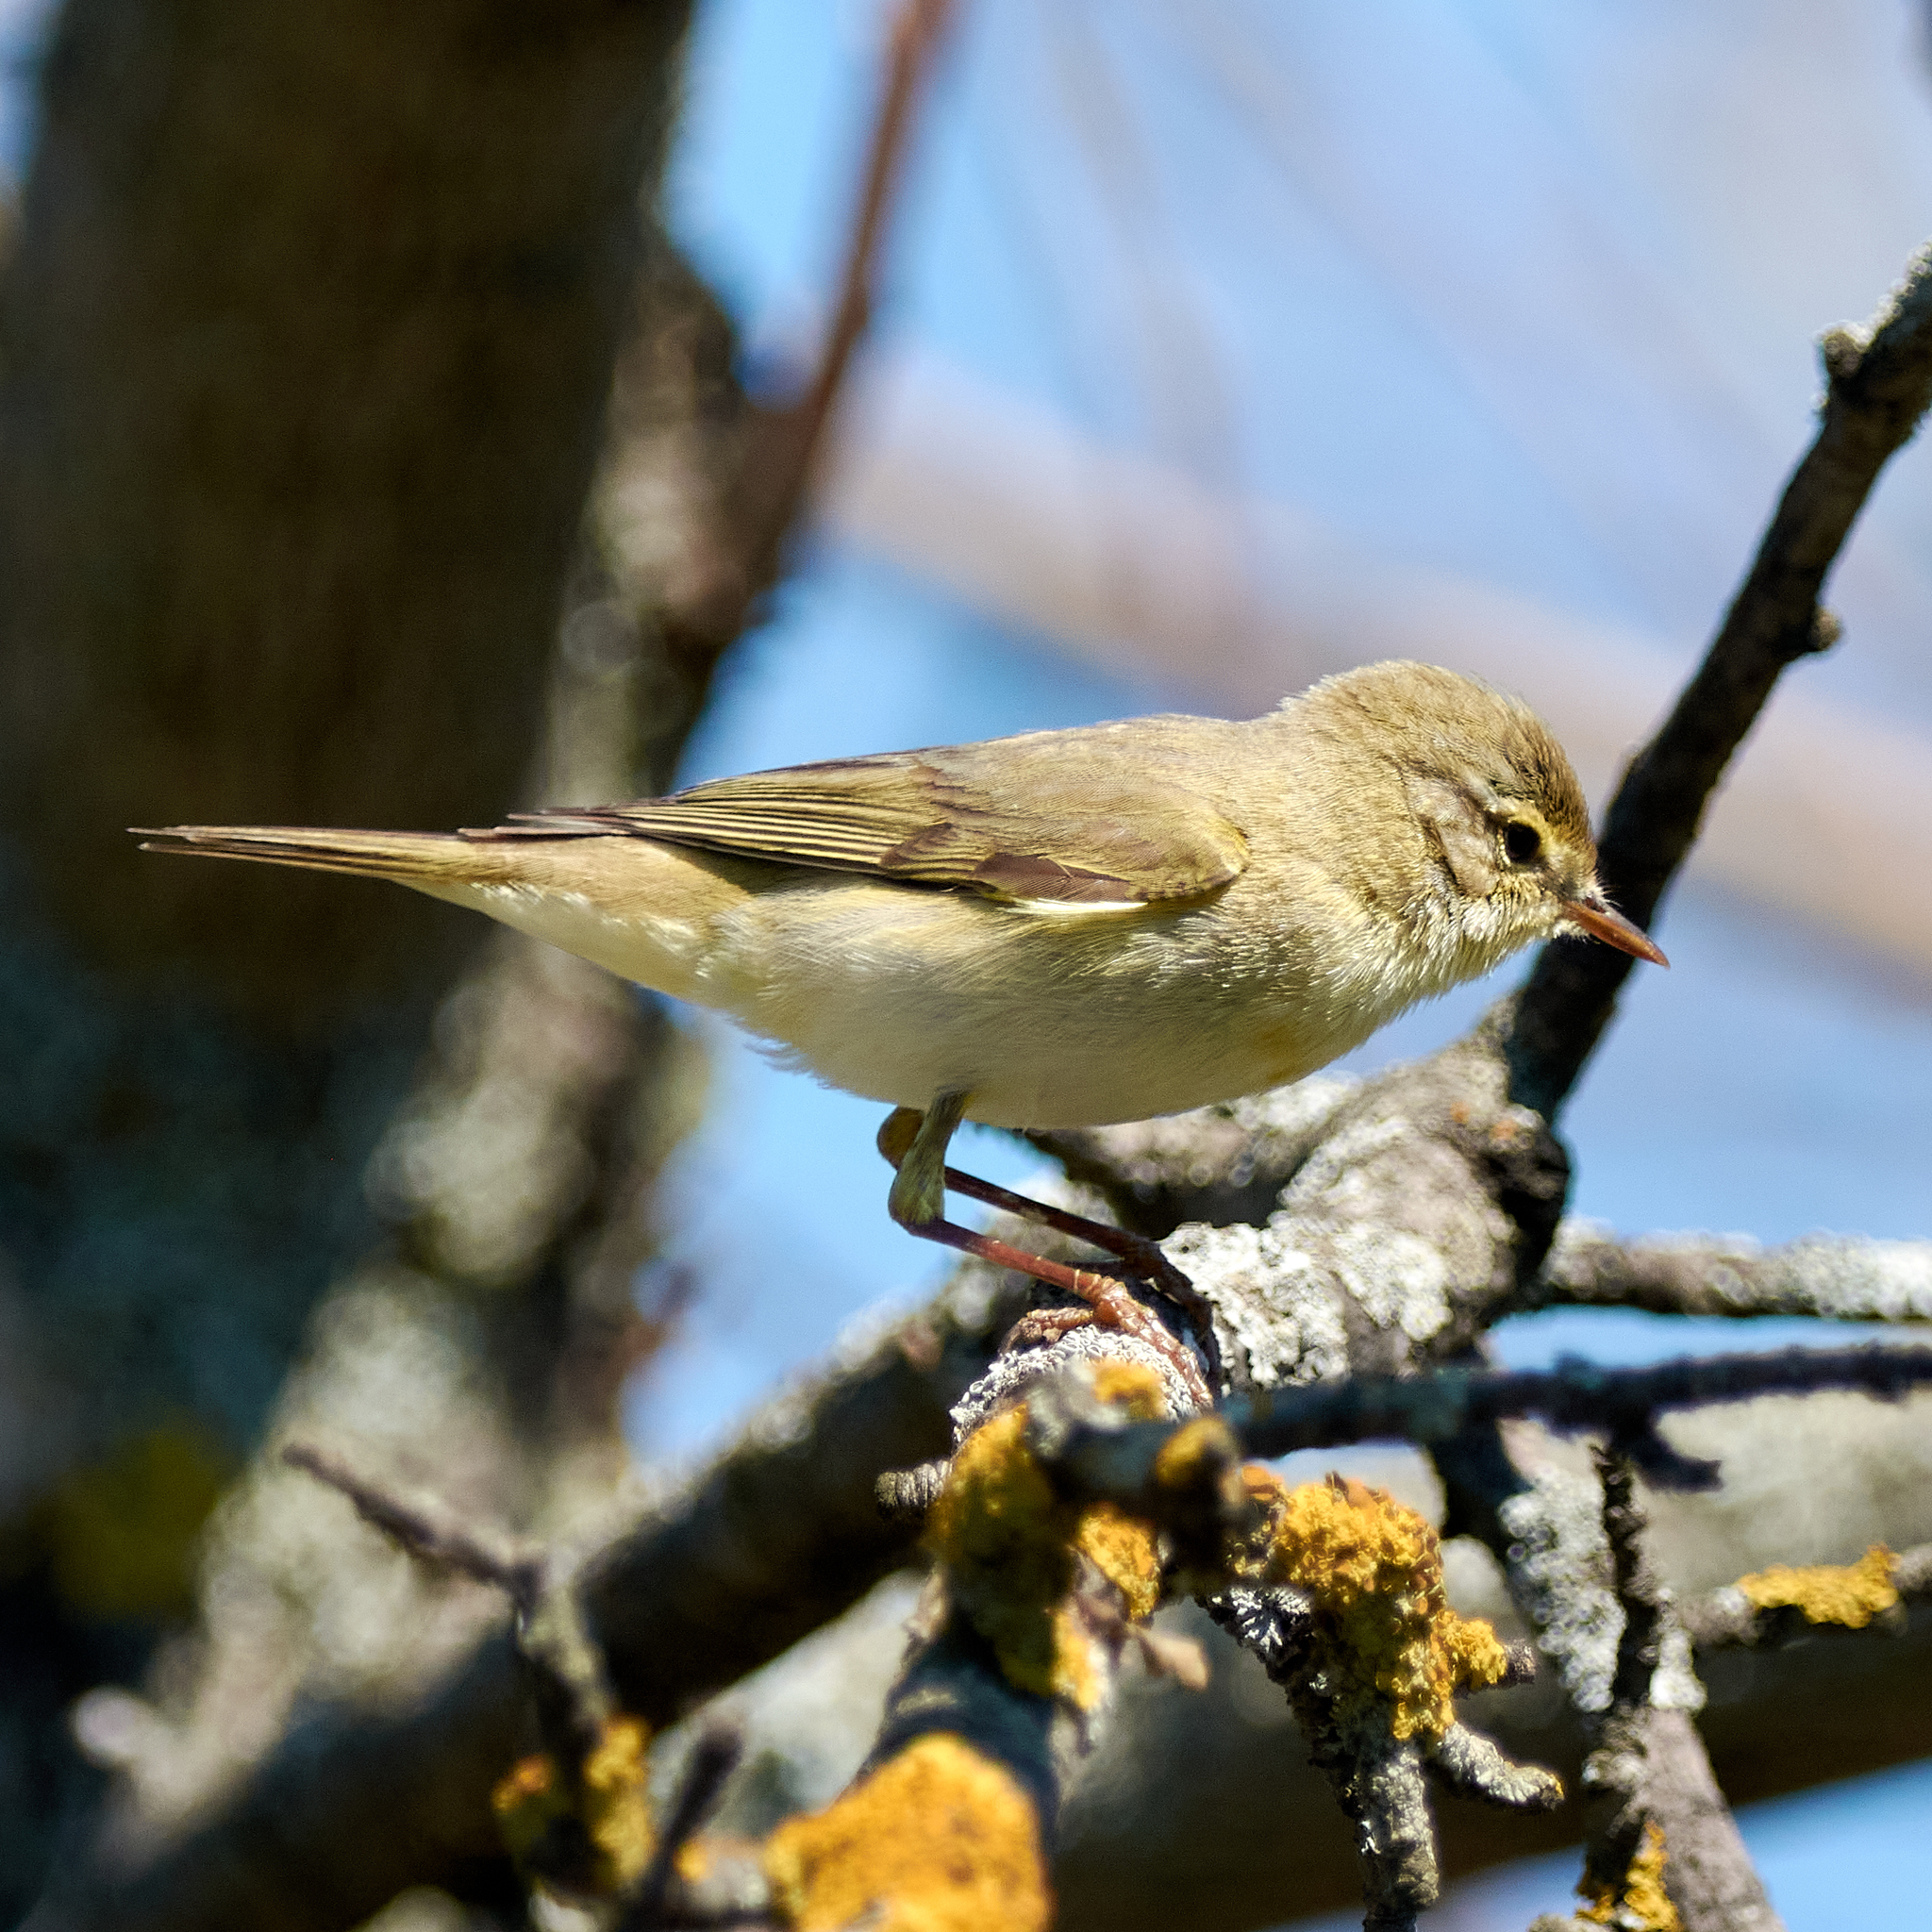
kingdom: Animalia
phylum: Chordata
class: Aves
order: Passeriformes
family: Phylloscopidae
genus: Phylloscopus
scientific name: Phylloscopus trochilus
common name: Willow warbler
